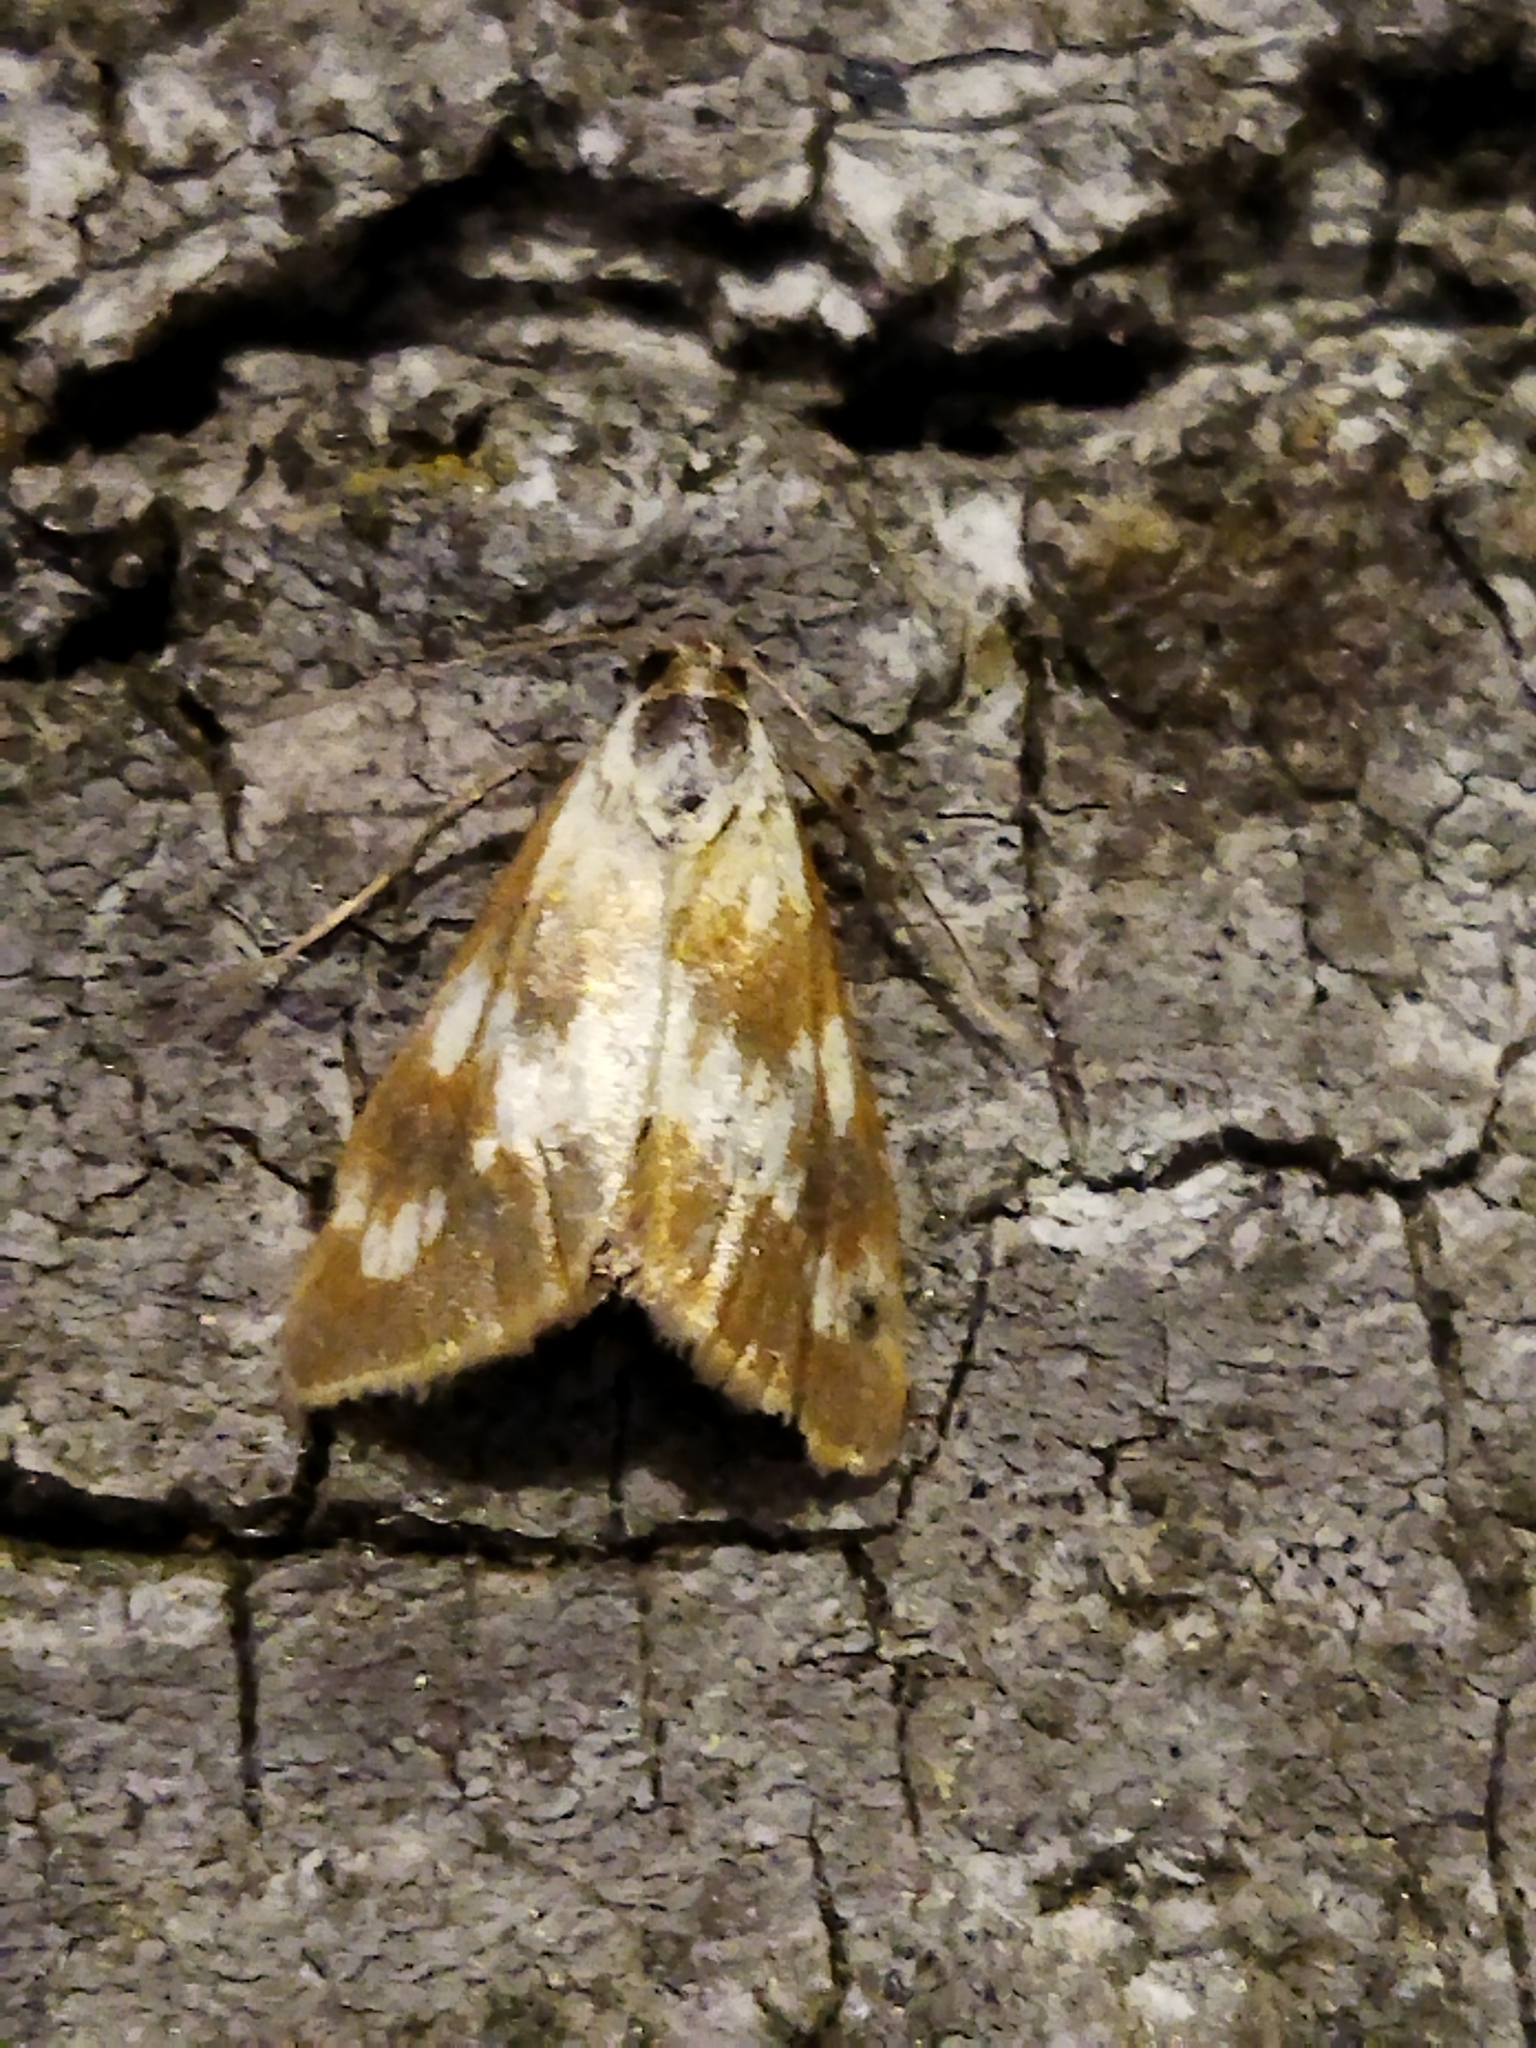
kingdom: Animalia
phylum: Arthropoda
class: Insecta
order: Lepidoptera
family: Crambidae
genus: Epascestria
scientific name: Epascestria pustulalis
